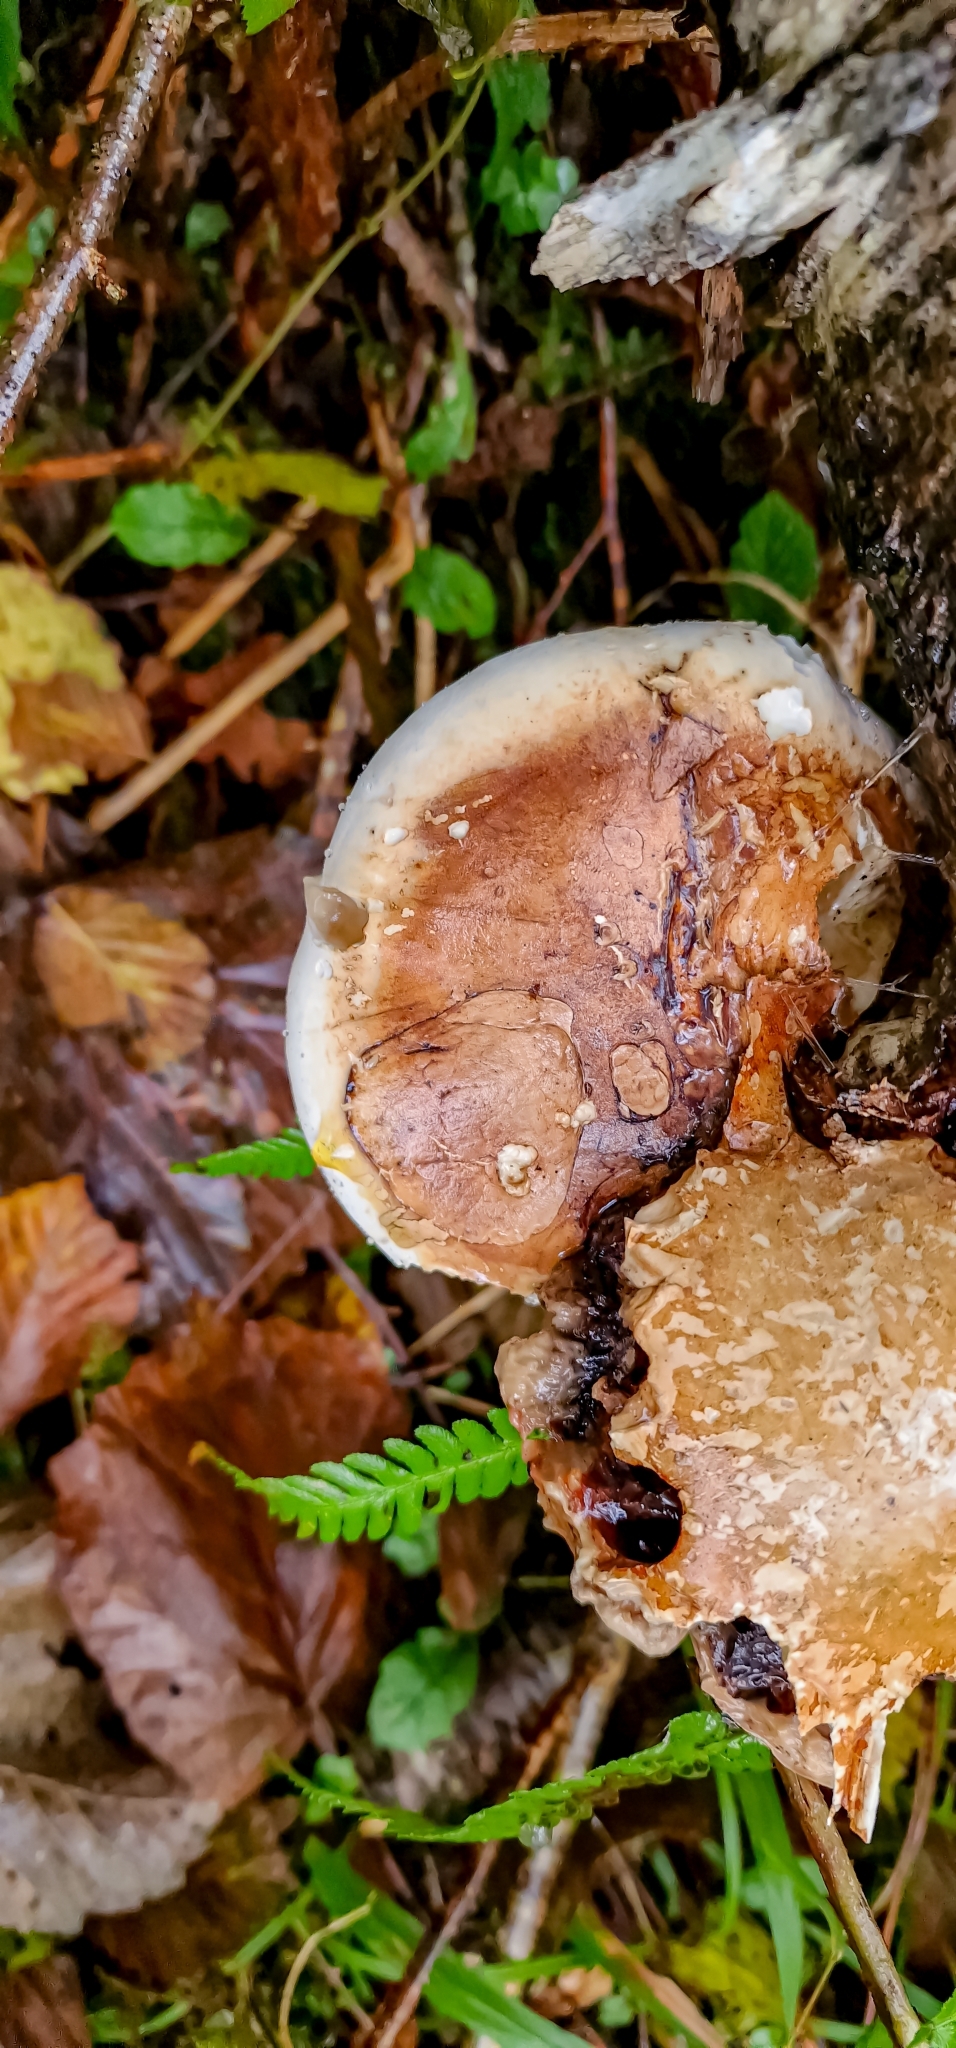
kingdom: Fungi
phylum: Basidiomycota
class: Agaricomycetes
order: Polyporales
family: Fomitopsidaceae
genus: Fomitopsis
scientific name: Fomitopsis betulina
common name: Birch polypore
